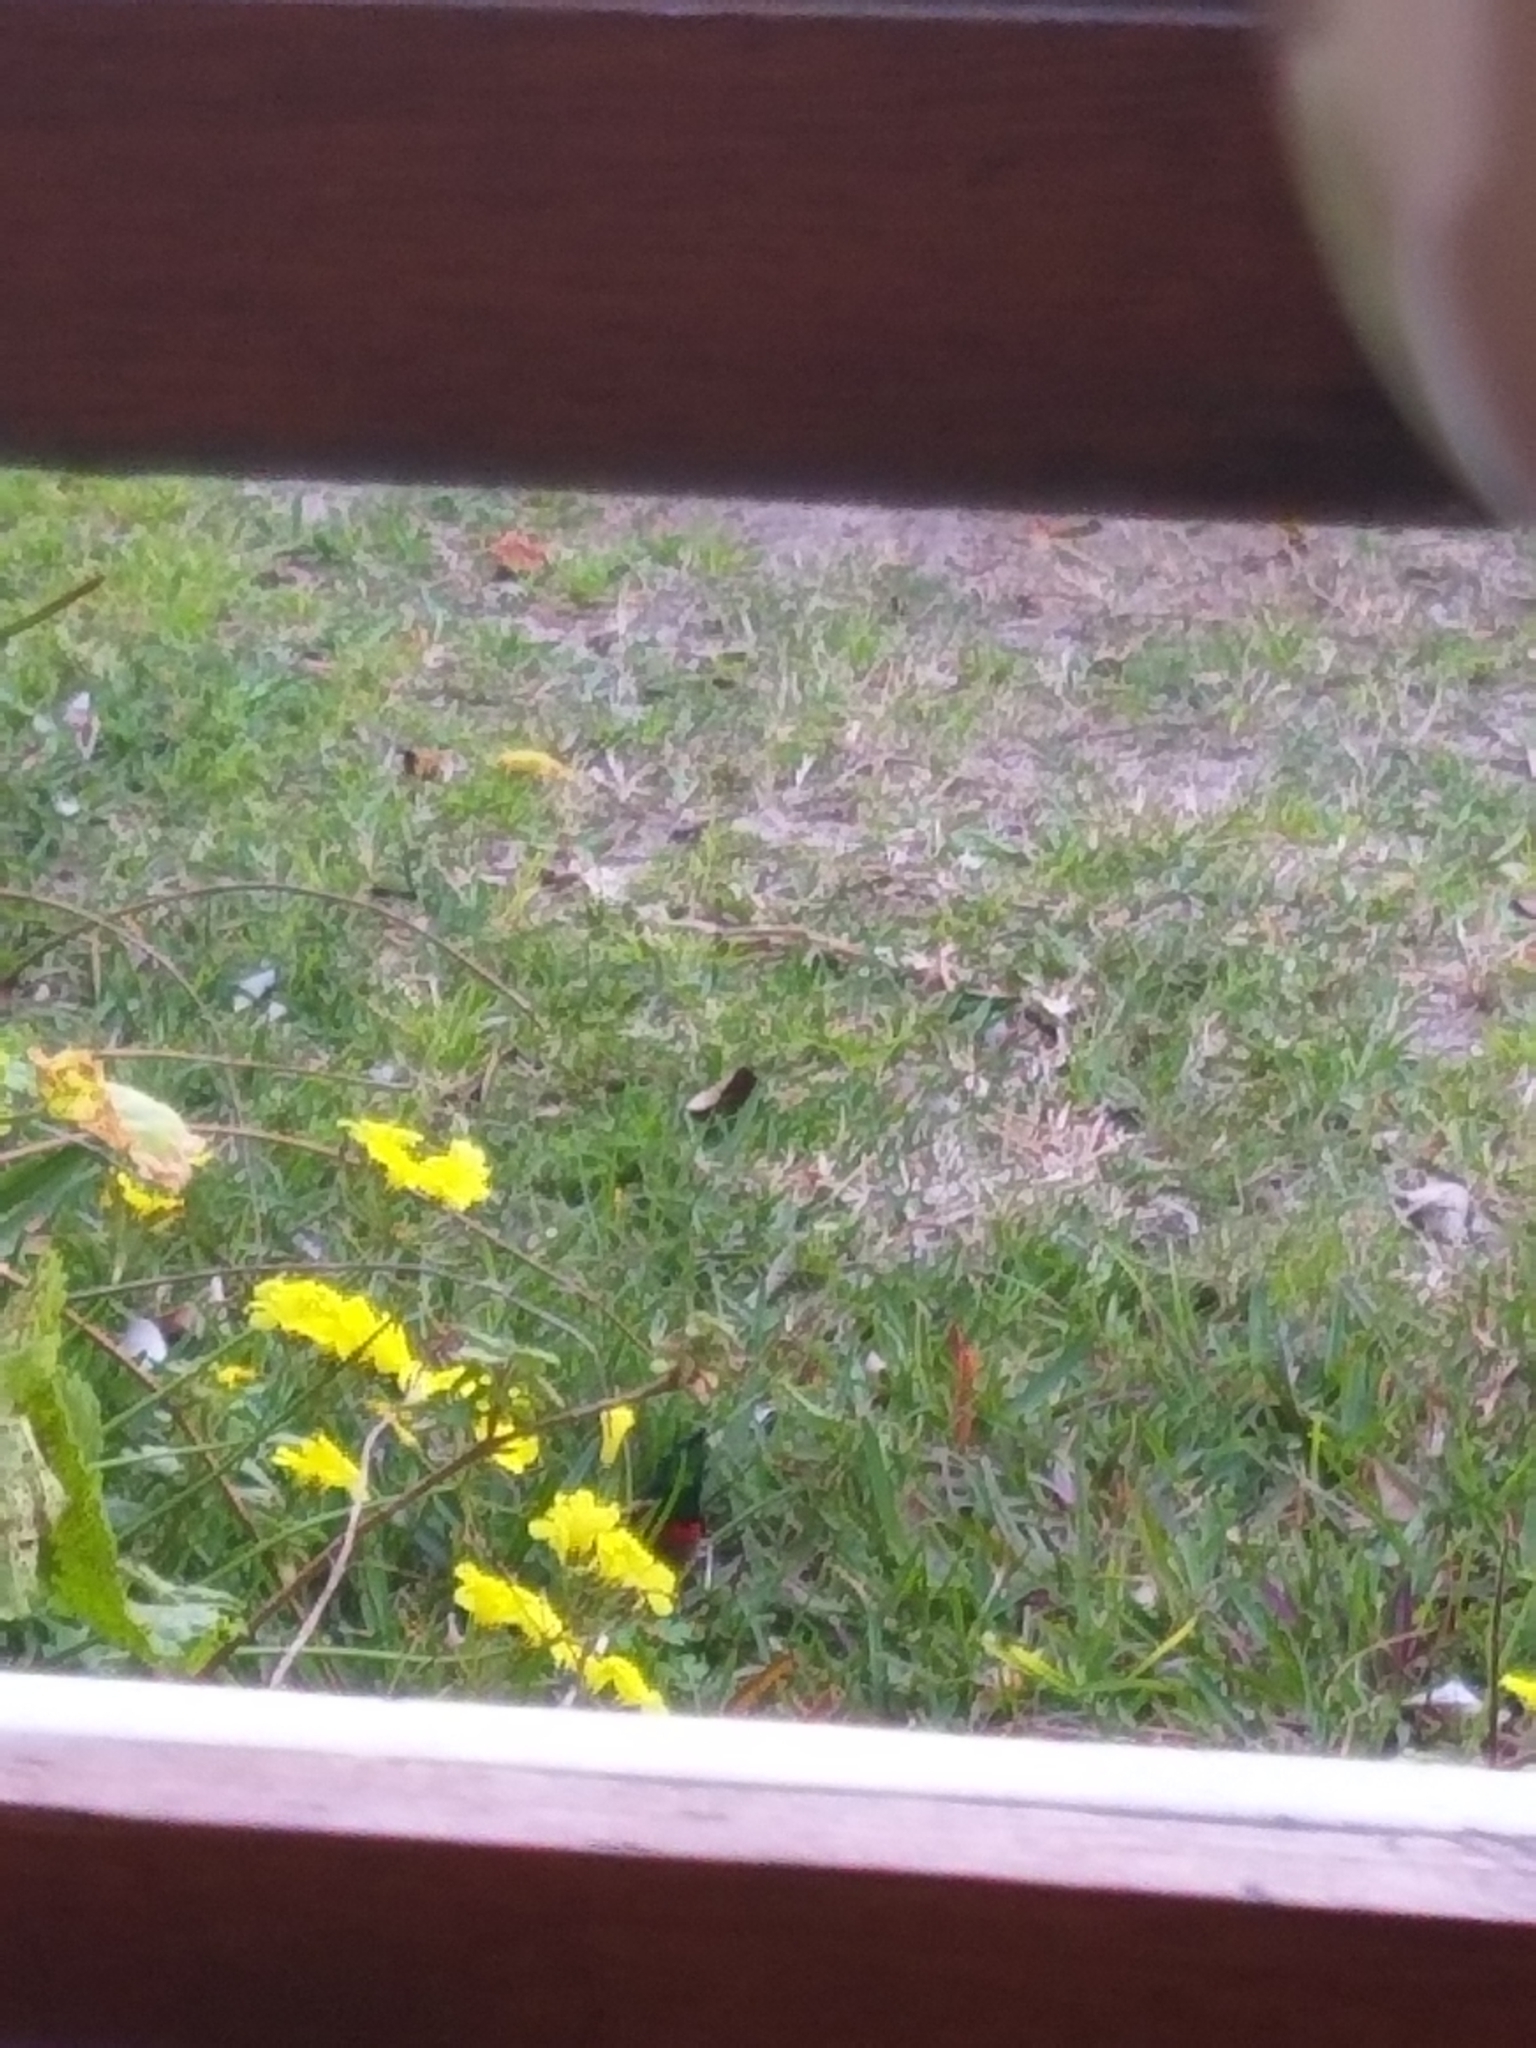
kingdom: Animalia
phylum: Chordata
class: Aves
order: Passeriformes
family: Nectariniidae
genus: Cinnyris
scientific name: Cinnyris chalybeus
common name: Southern double-collared sunbird
